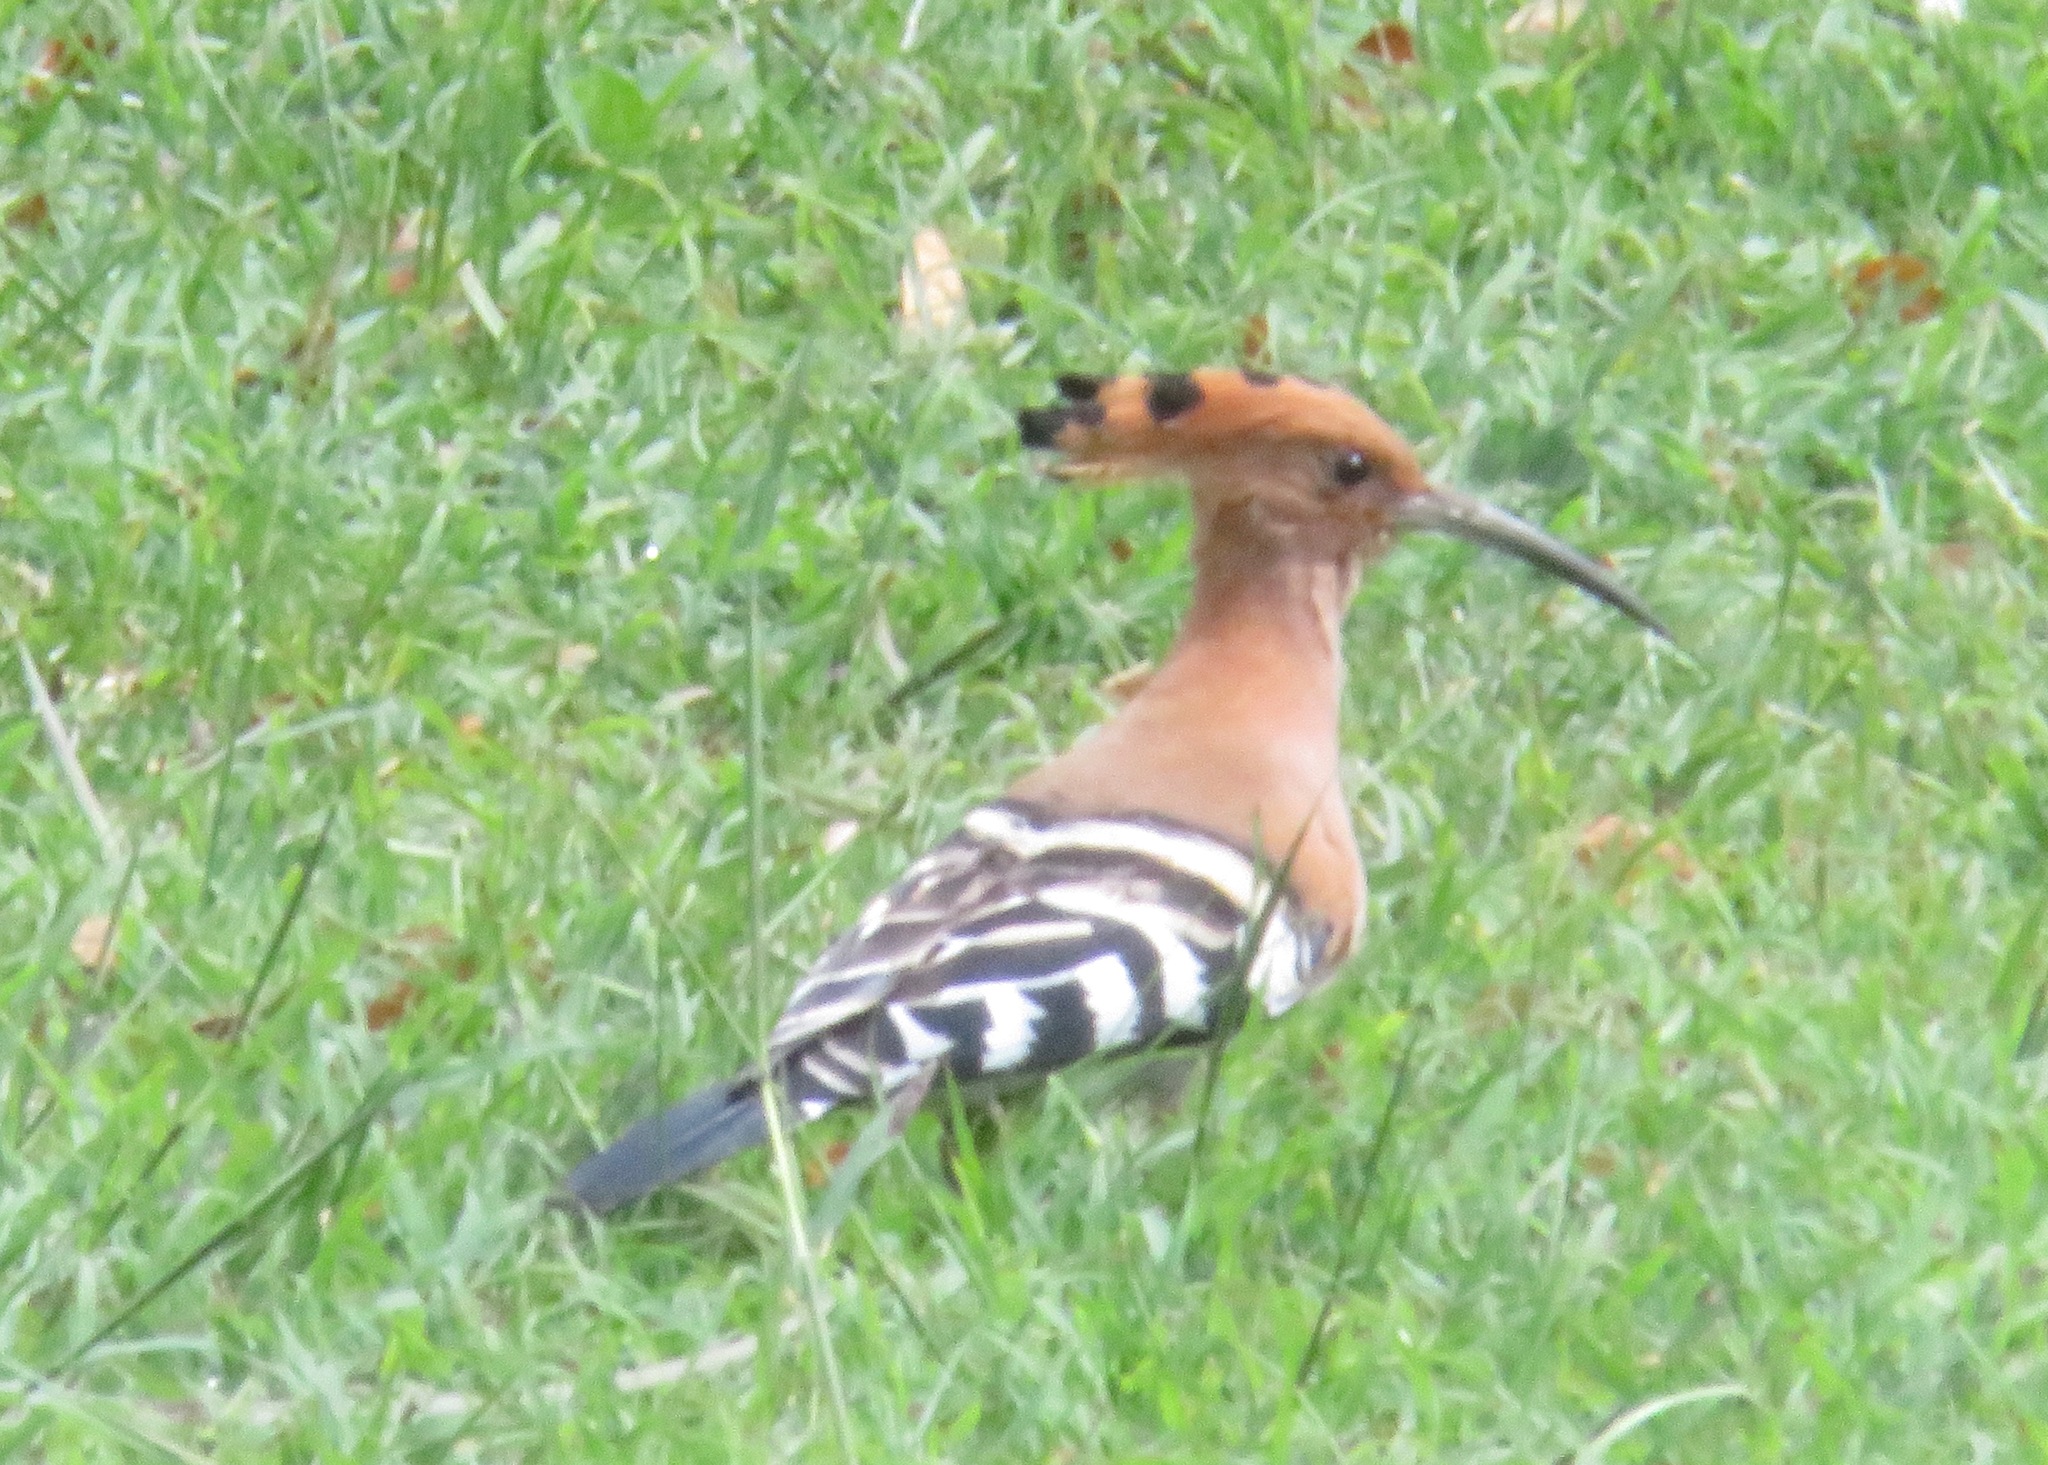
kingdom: Animalia
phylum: Chordata
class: Aves
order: Bucerotiformes
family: Upupidae
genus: Upupa
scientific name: Upupa epops
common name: Eurasian hoopoe
